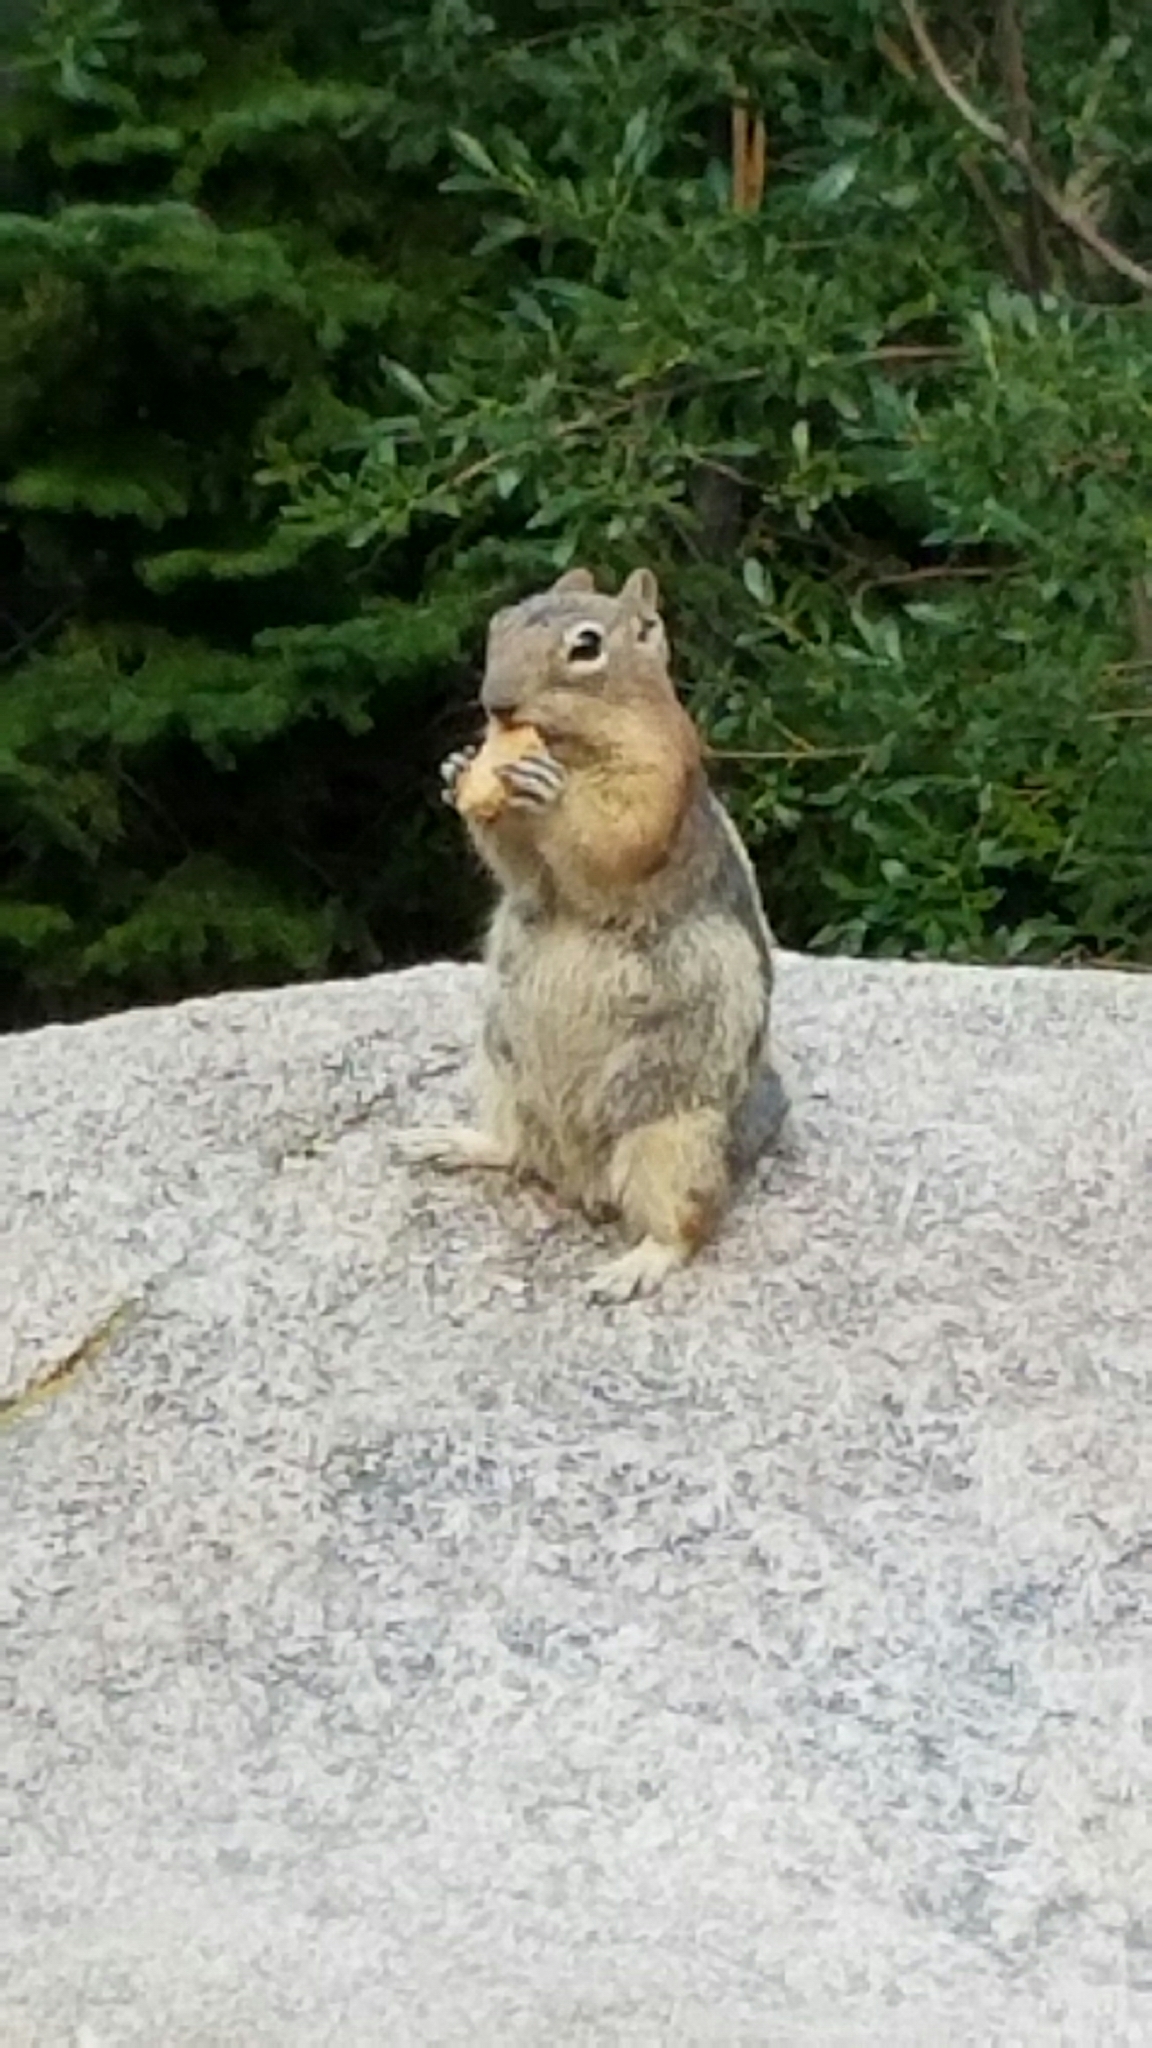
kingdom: Animalia
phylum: Chordata
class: Mammalia
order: Rodentia
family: Sciuridae
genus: Callospermophilus
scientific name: Callospermophilus lateralis
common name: Golden-mantled ground squirrel
